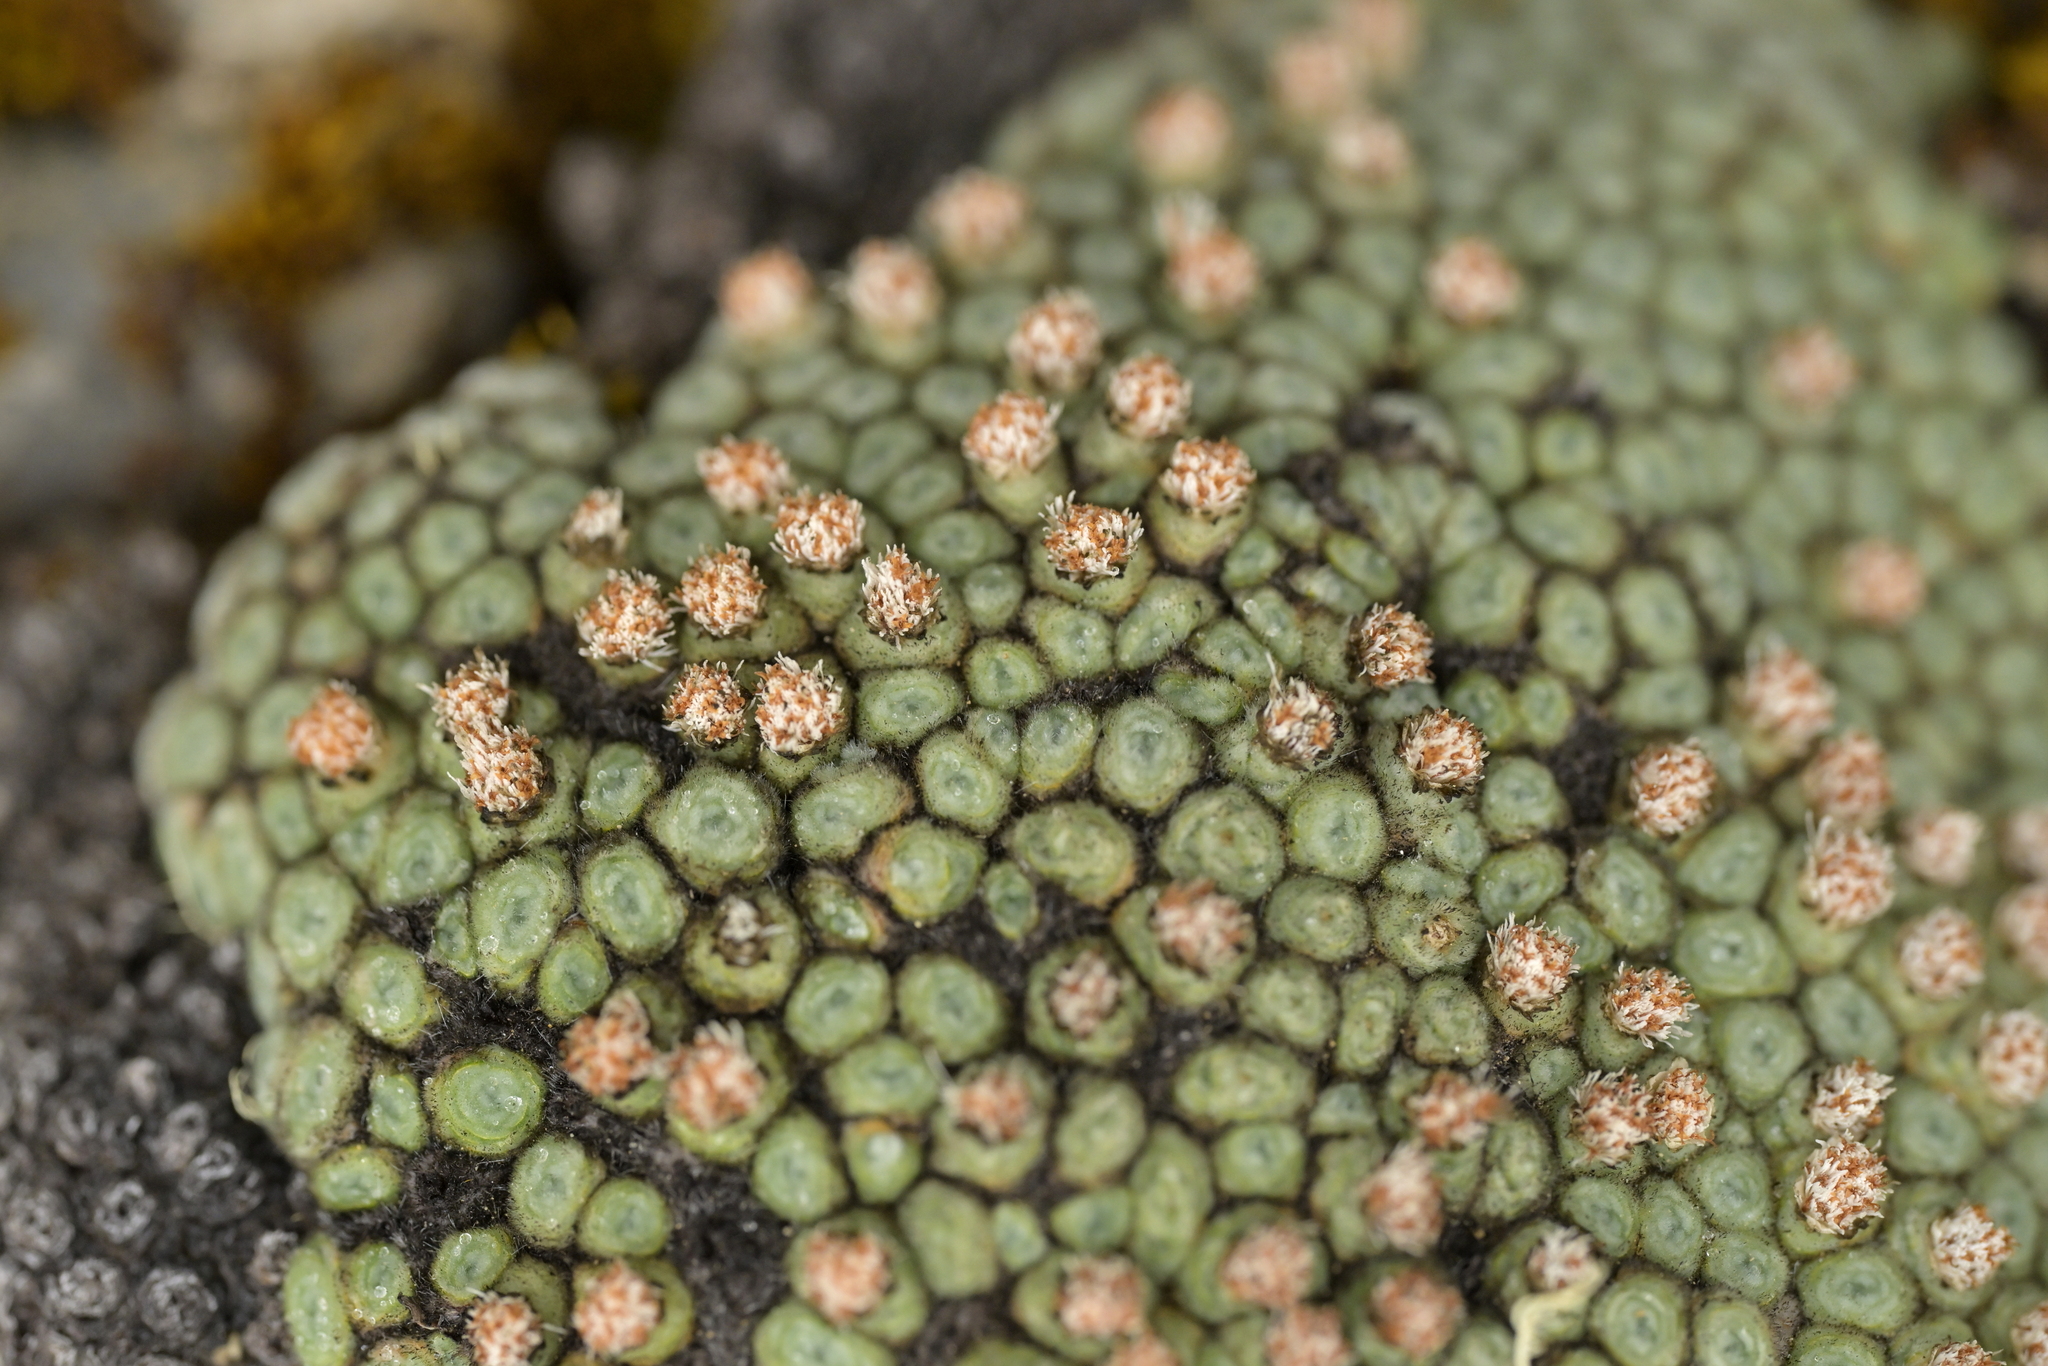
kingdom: Plantae
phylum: Tracheophyta
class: Magnoliopsida
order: Asterales
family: Asteraceae
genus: Raoulia
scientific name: Raoulia rubra
